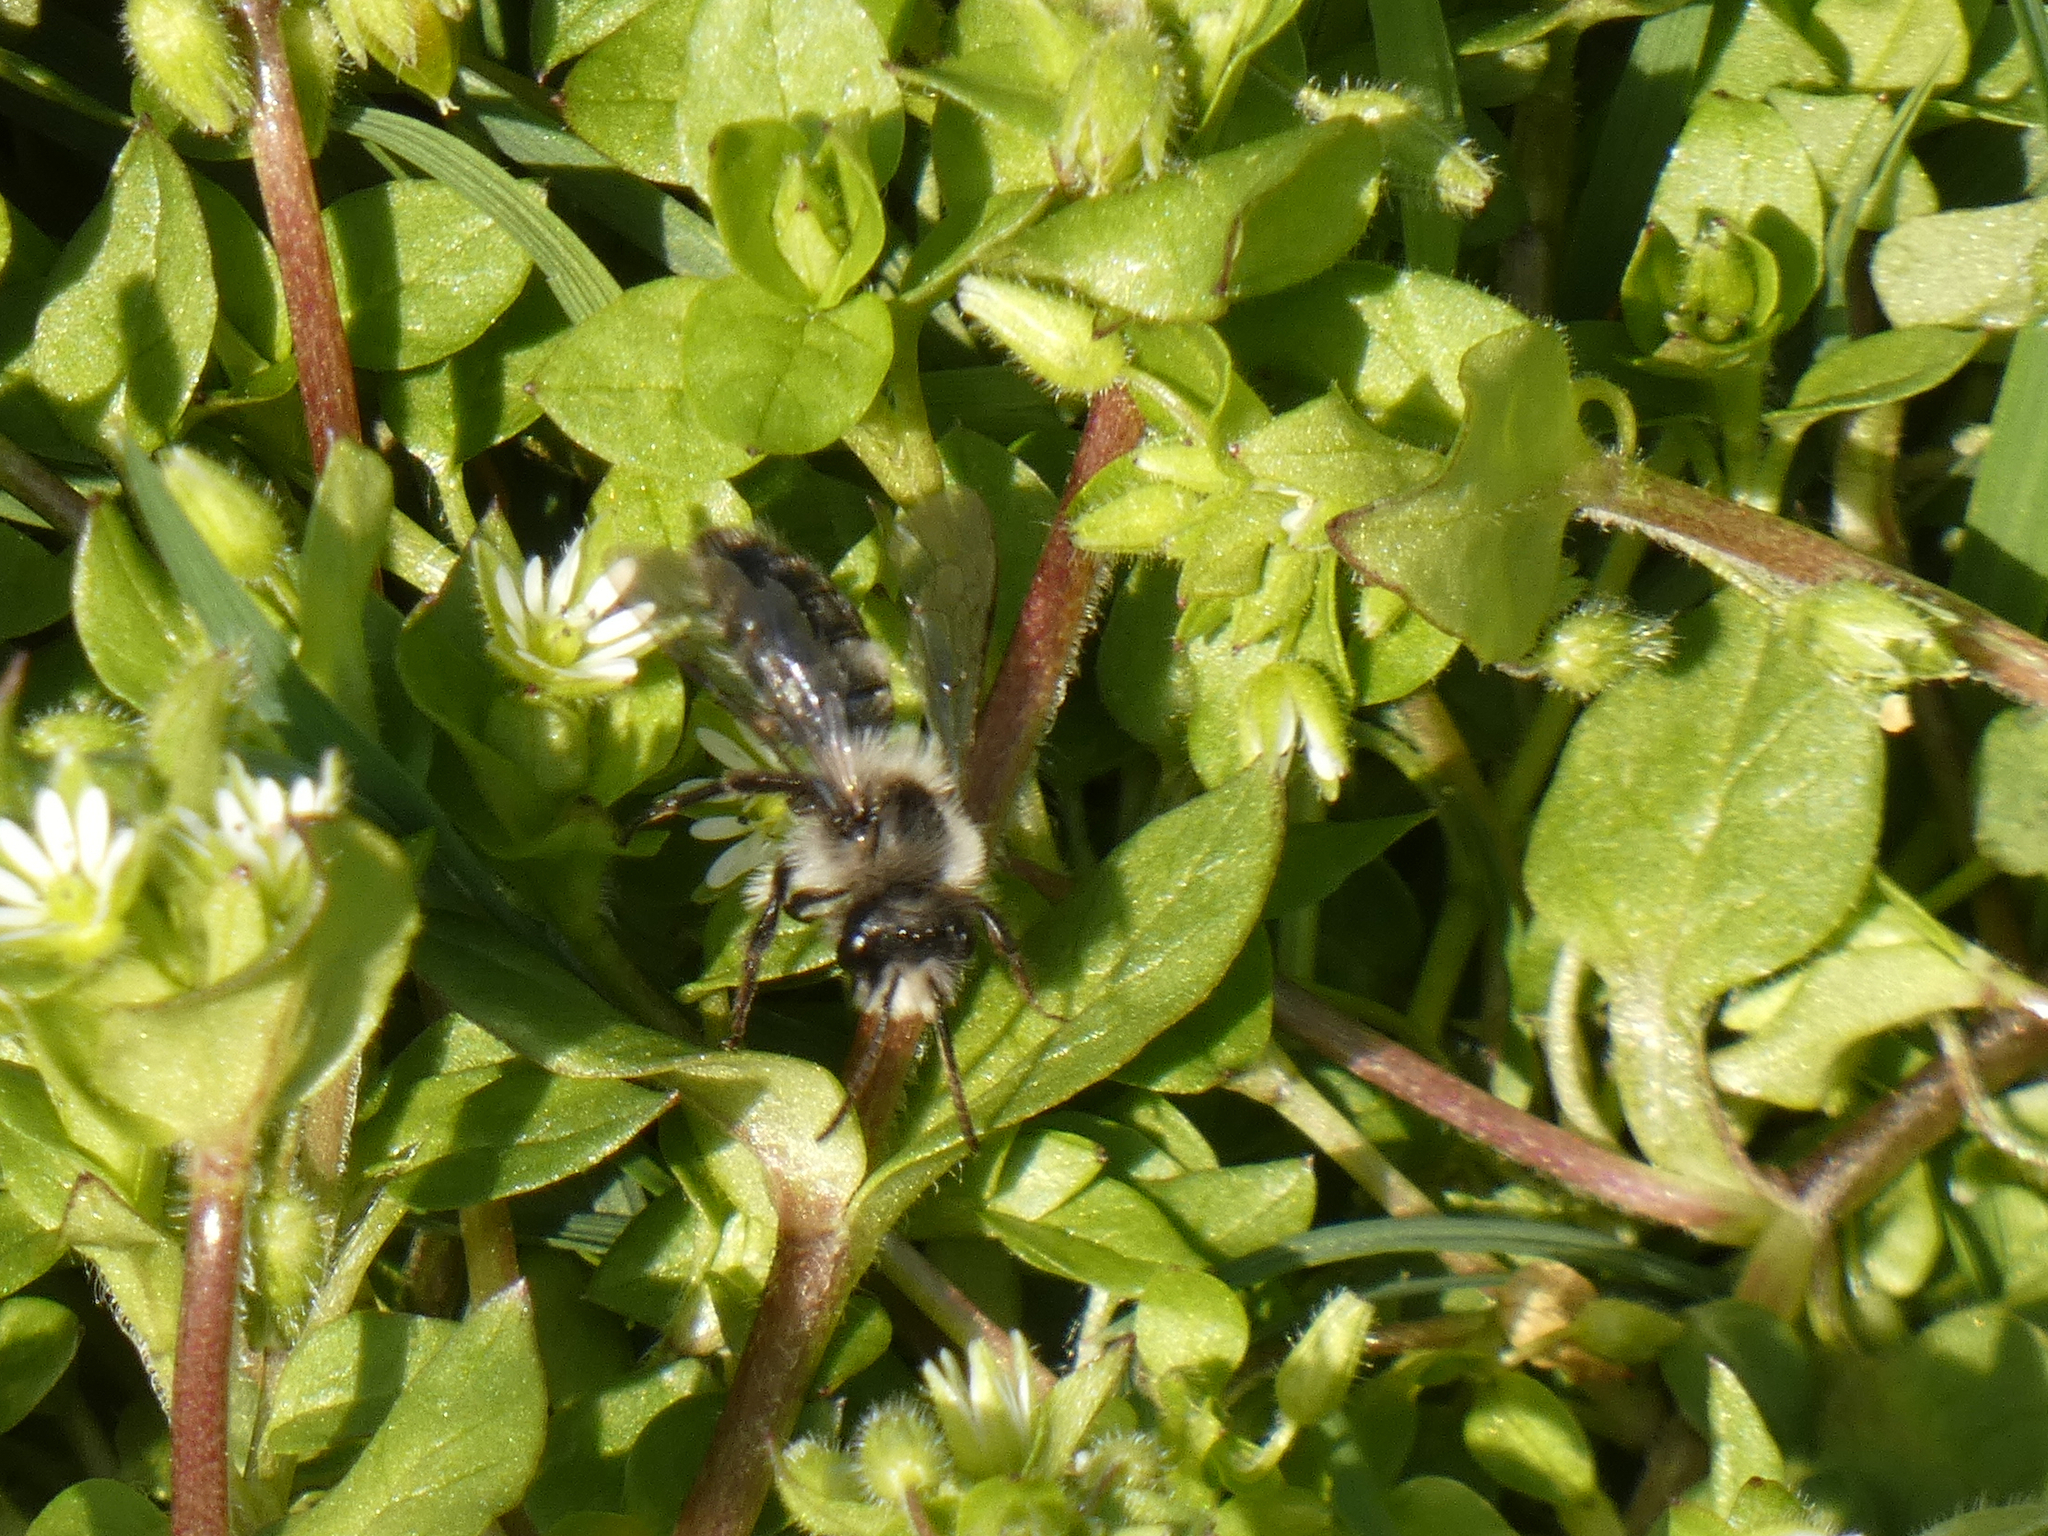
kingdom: Animalia
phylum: Arthropoda
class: Insecta
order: Hymenoptera
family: Andrenidae
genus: Andrena
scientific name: Andrena cineraria
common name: Ashy mining bee
